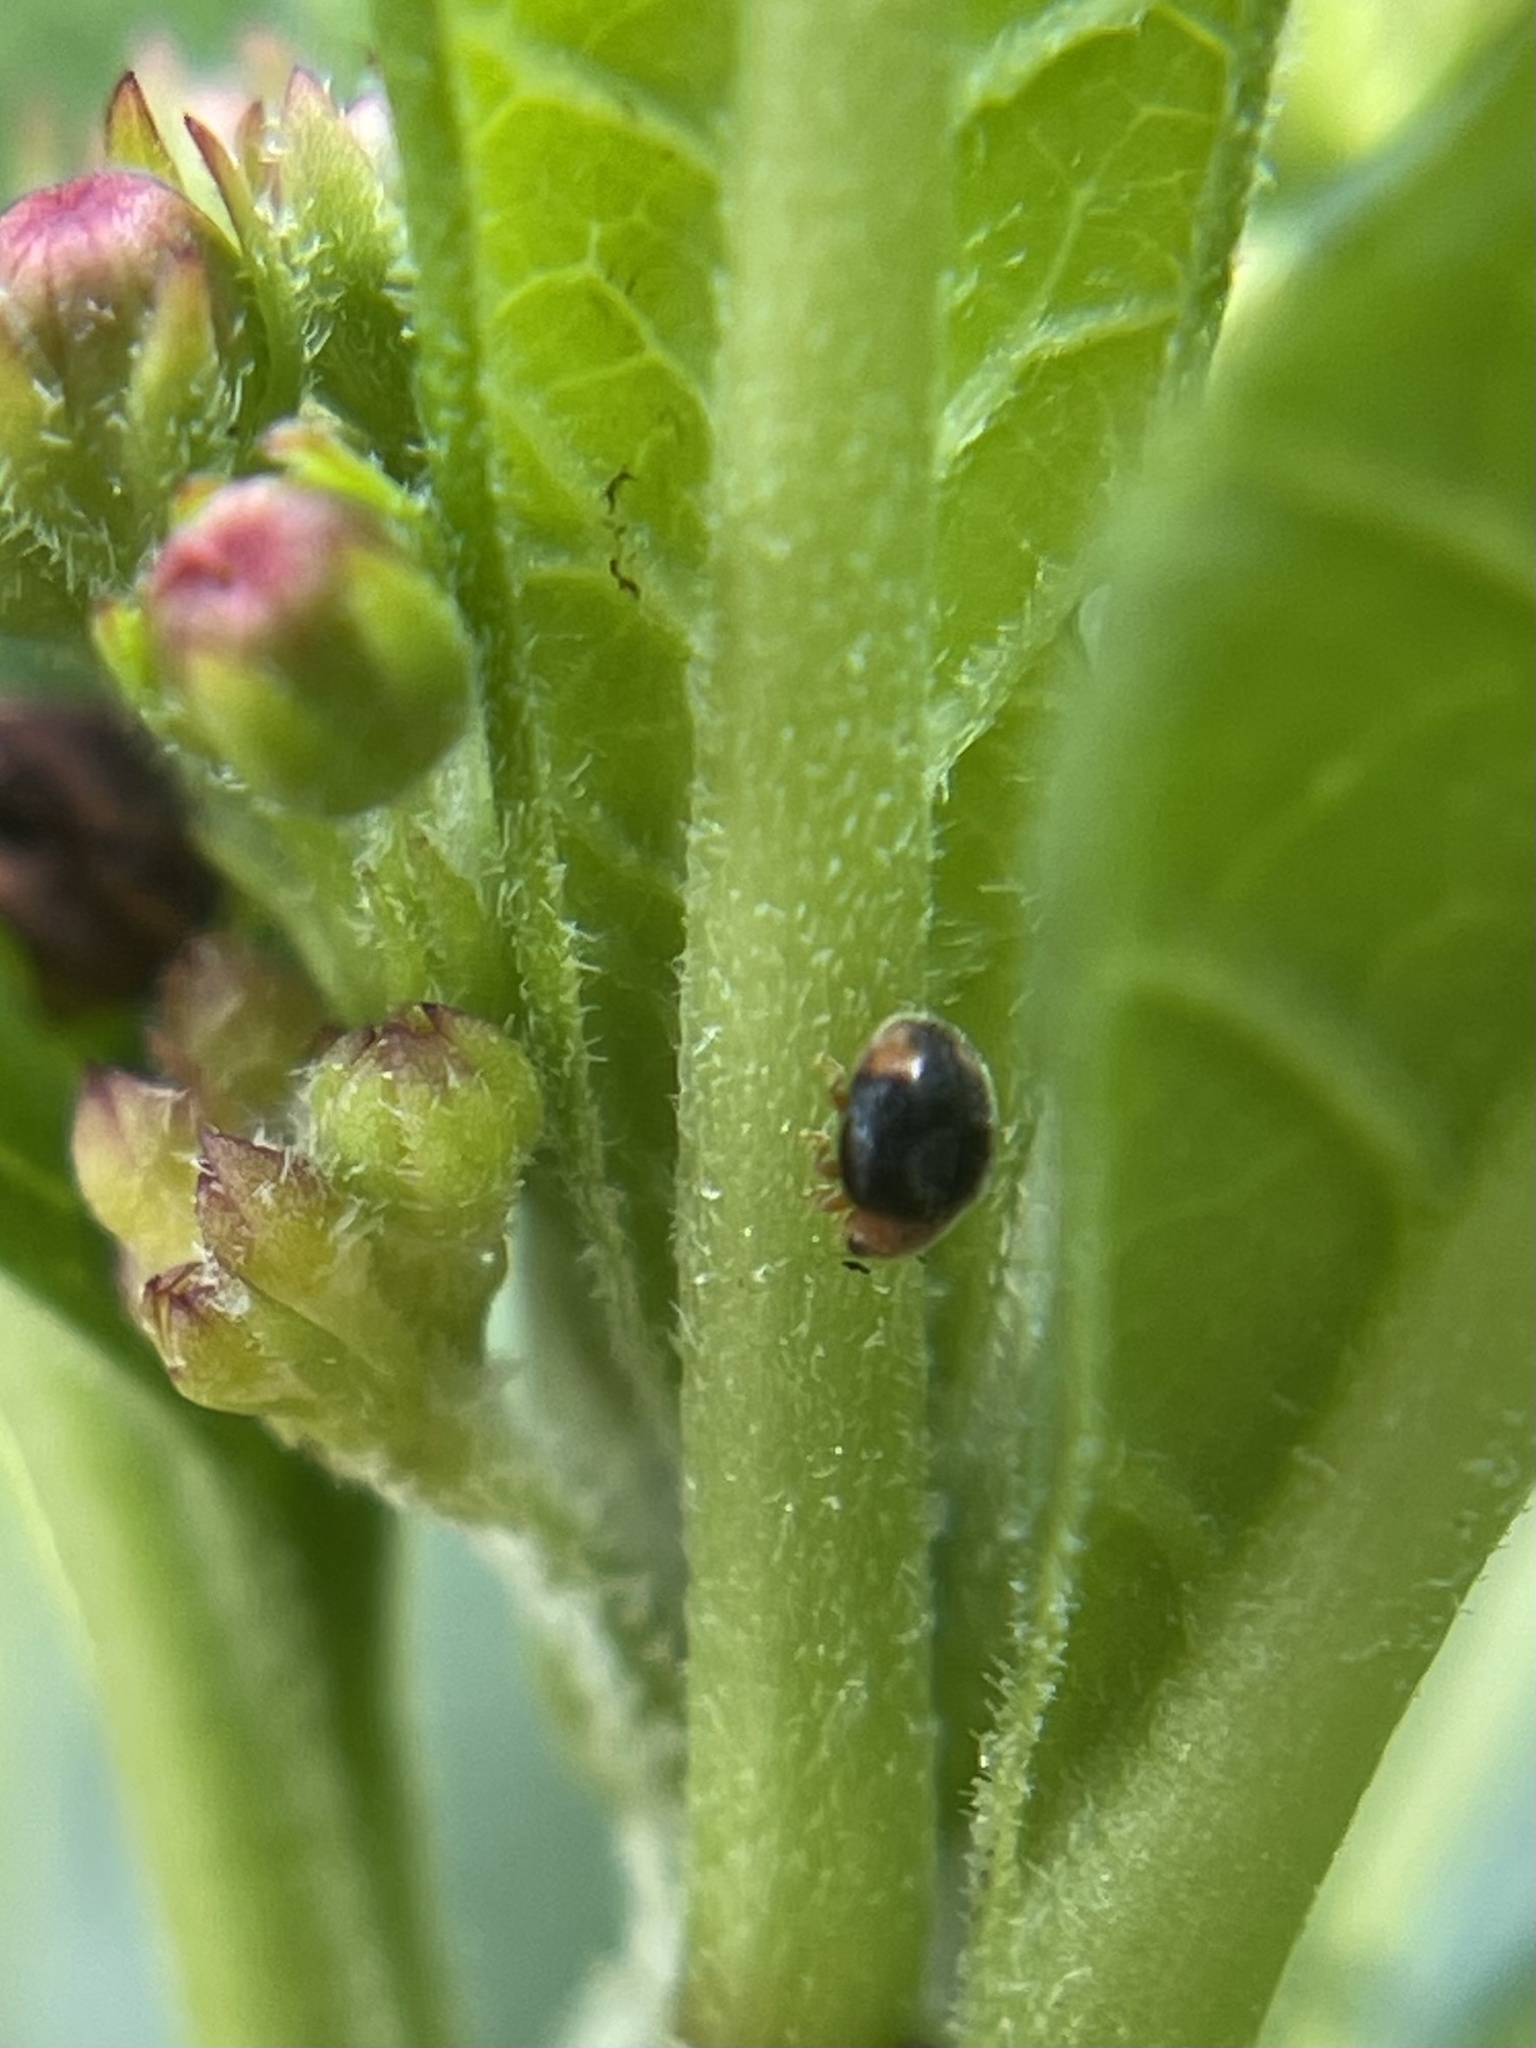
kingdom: Animalia
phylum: Arthropoda
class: Insecta
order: Coleoptera
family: Coccinellidae
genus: Diomus
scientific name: Diomus roseicollis
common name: Ladybird beetle
